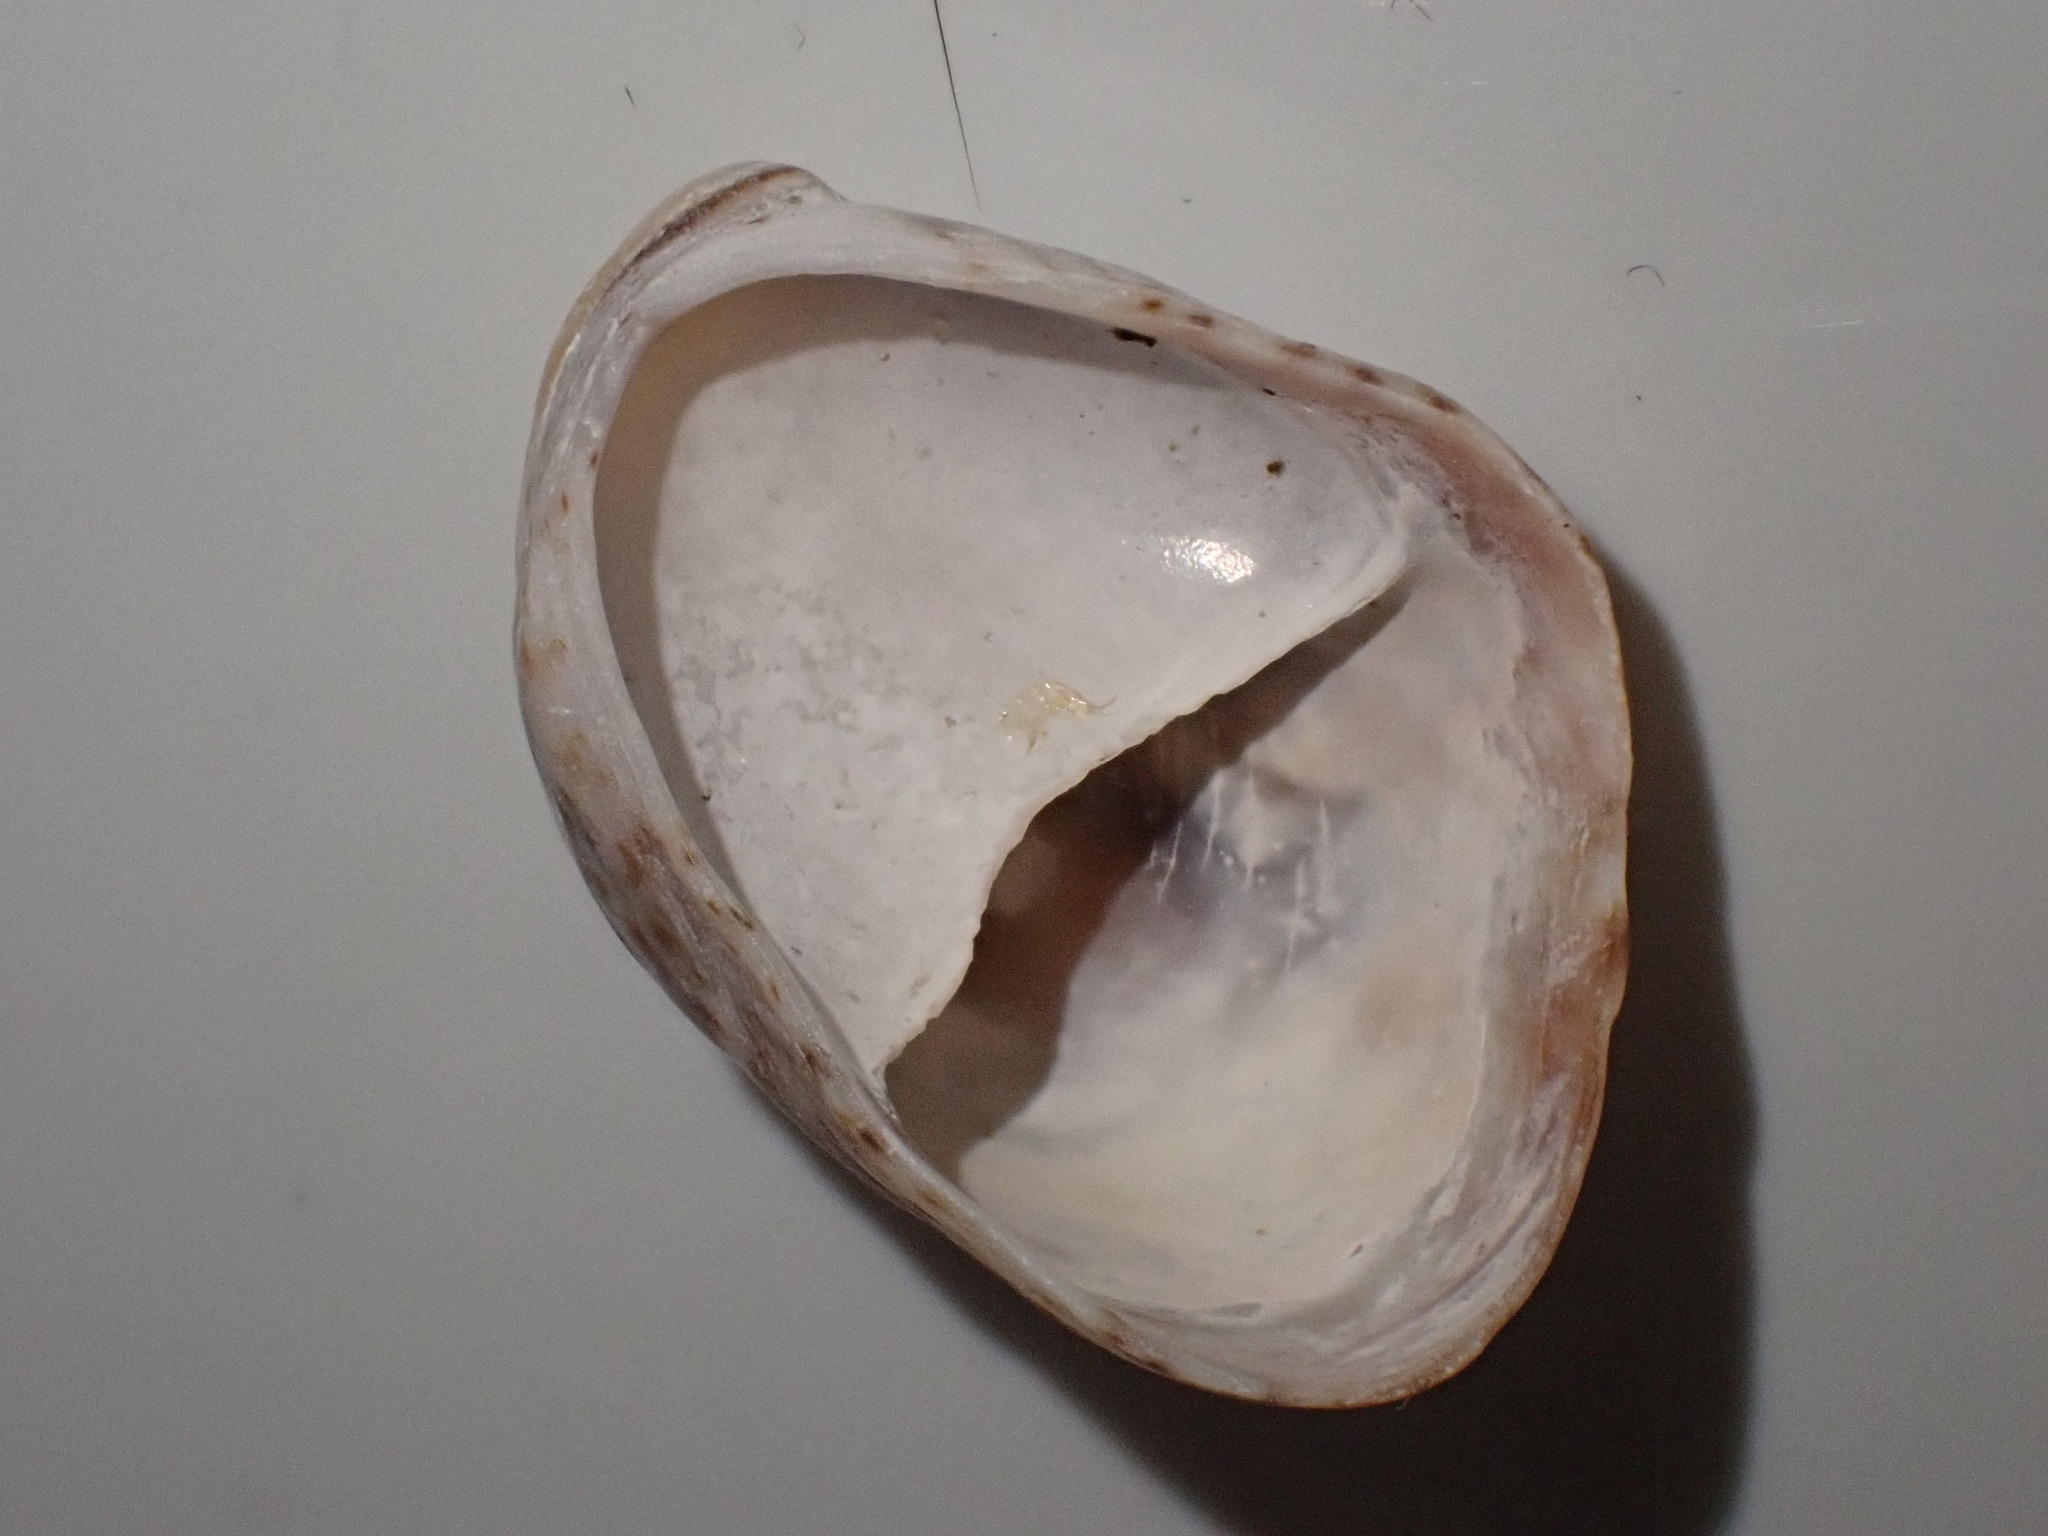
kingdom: Animalia
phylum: Mollusca
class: Gastropoda
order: Littorinimorpha
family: Calyptraeidae
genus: Crepidula
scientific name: Crepidula fornicata
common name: Slipper limpet
